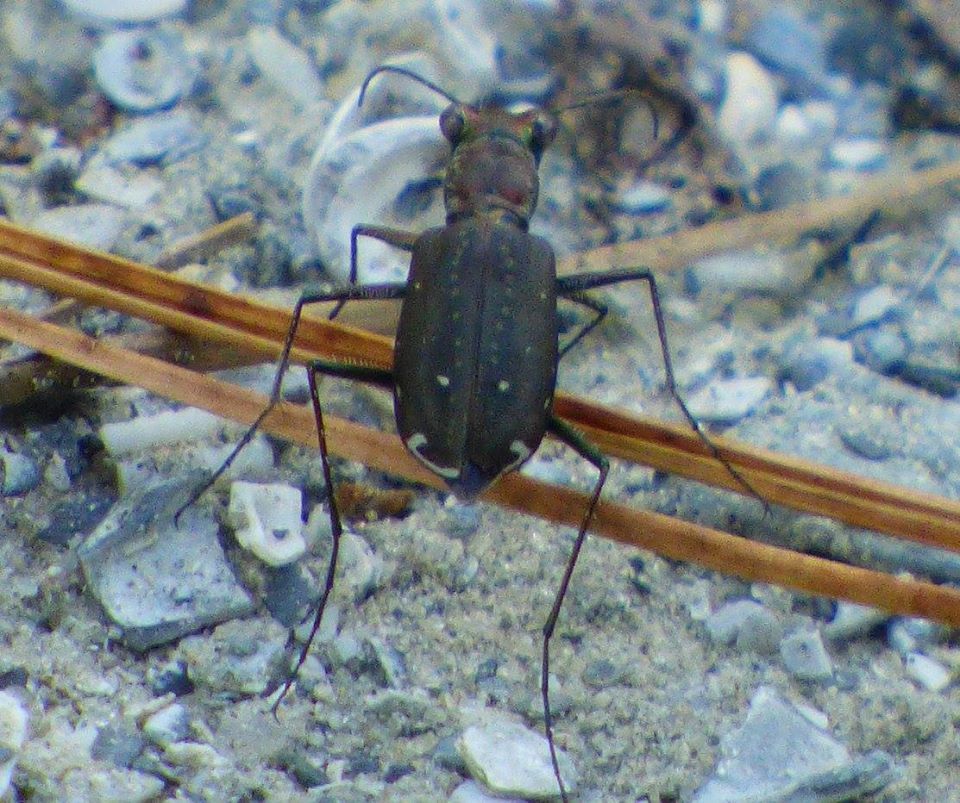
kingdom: Animalia
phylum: Arthropoda
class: Insecta
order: Coleoptera
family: Carabidae
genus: Cicindela
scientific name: Cicindela punctulata
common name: Punctured tiger beetle
